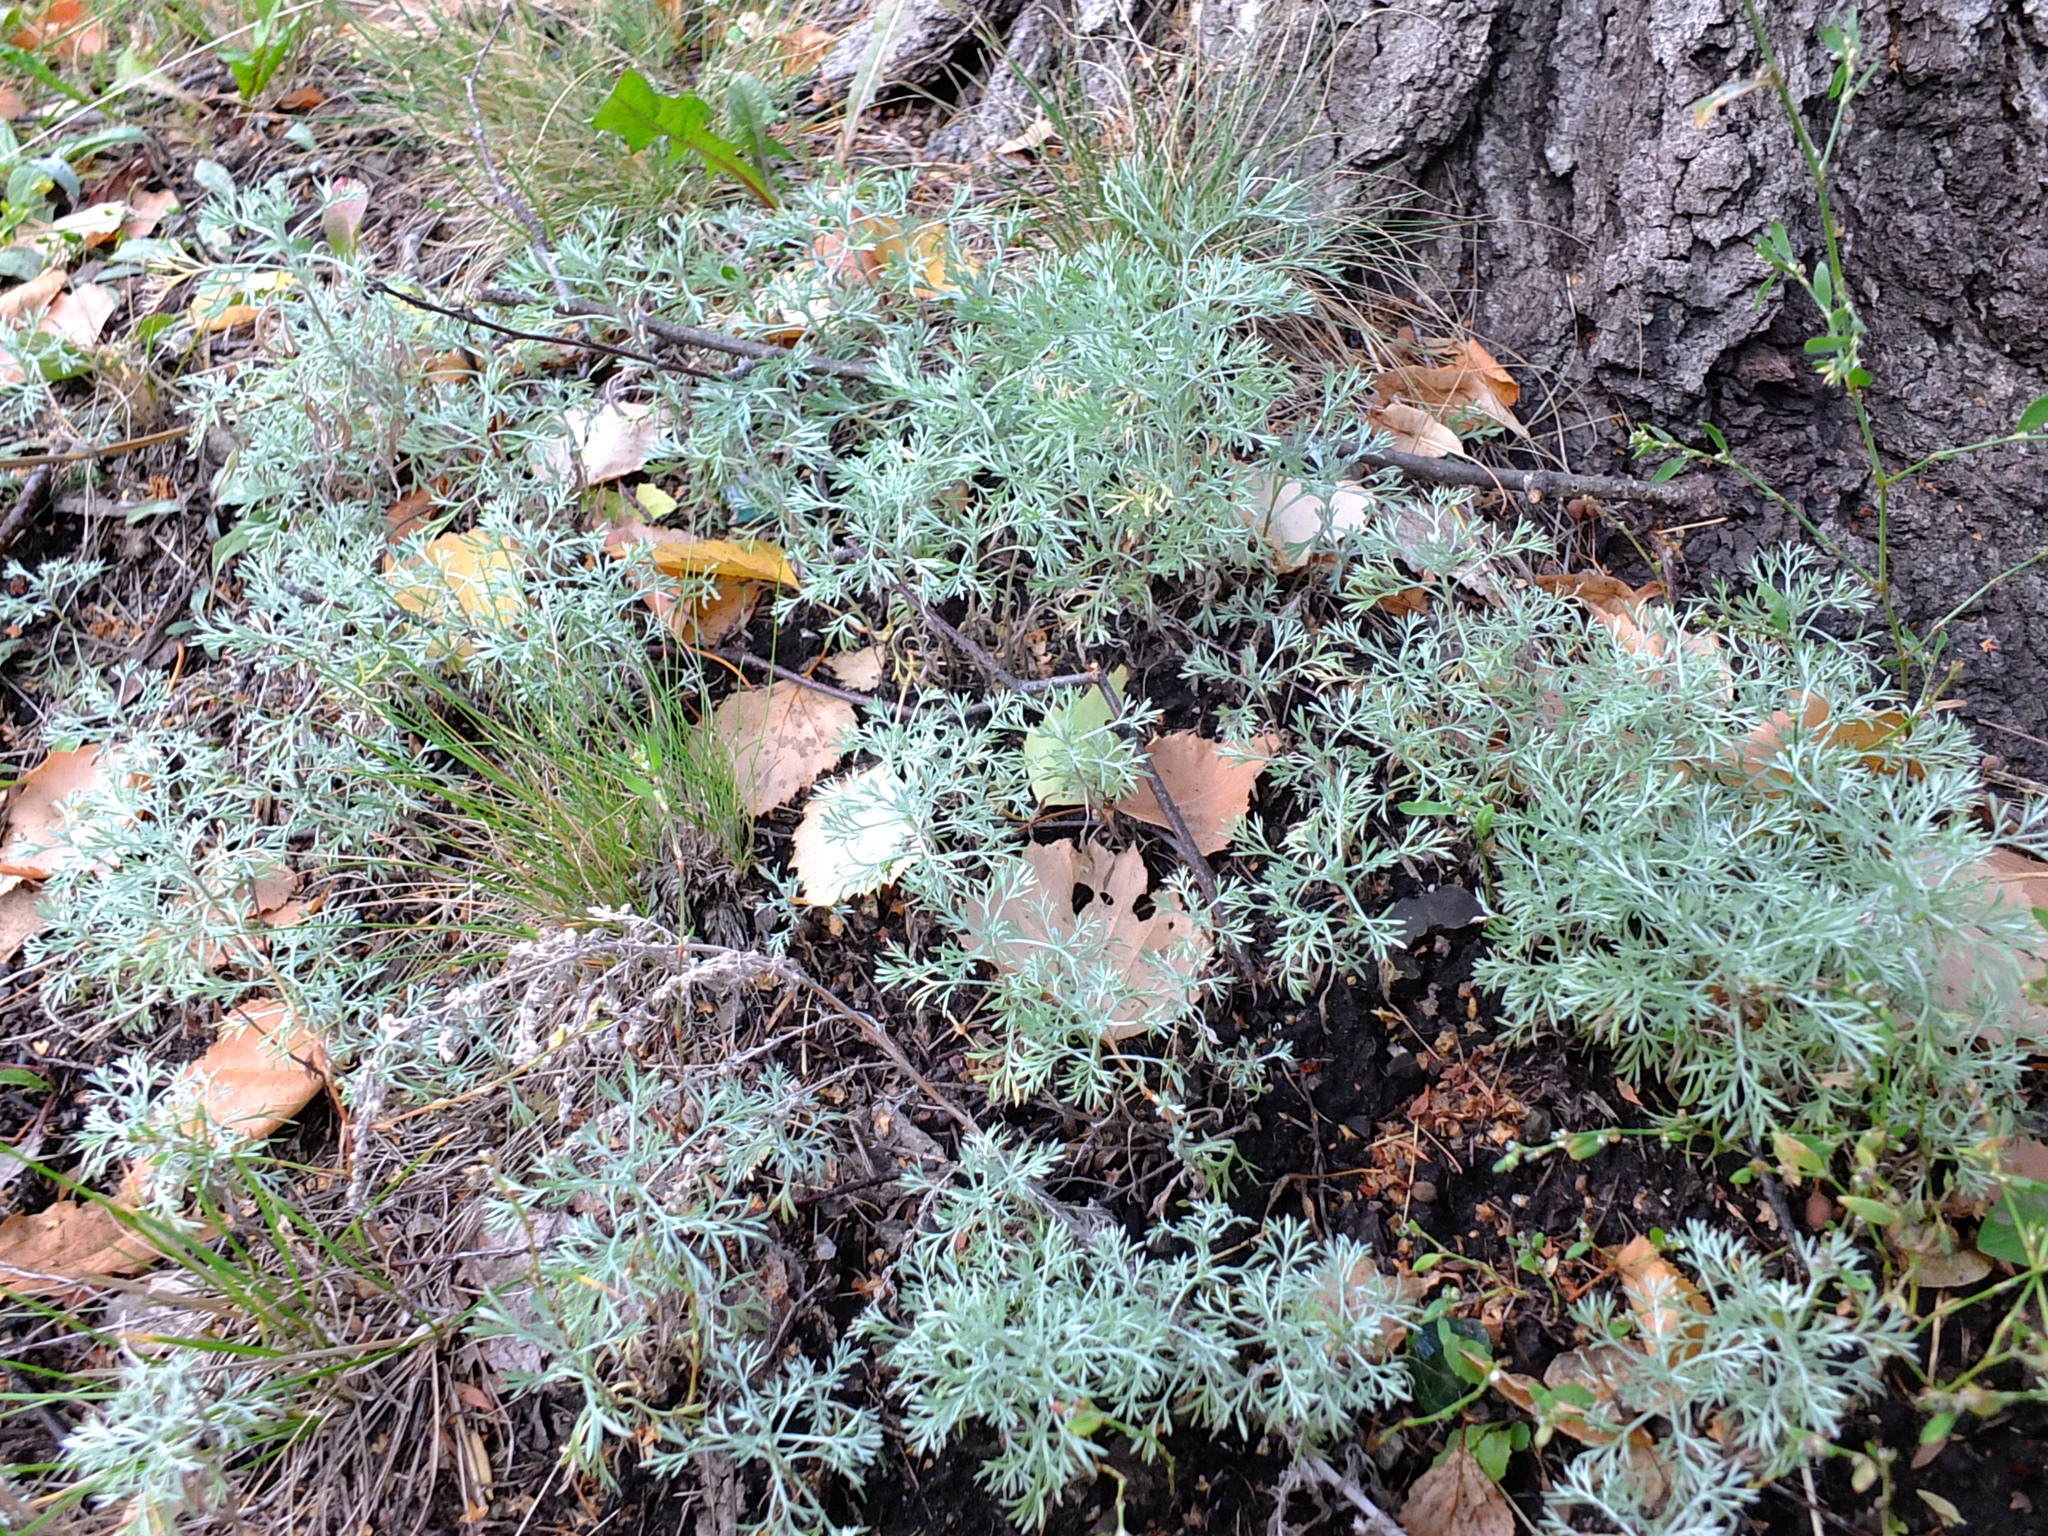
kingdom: Plantae
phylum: Tracheophyta
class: Magnoliopsida
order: Asterales
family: Asteraceae
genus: Artemisia
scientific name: Artemisia austriaca
